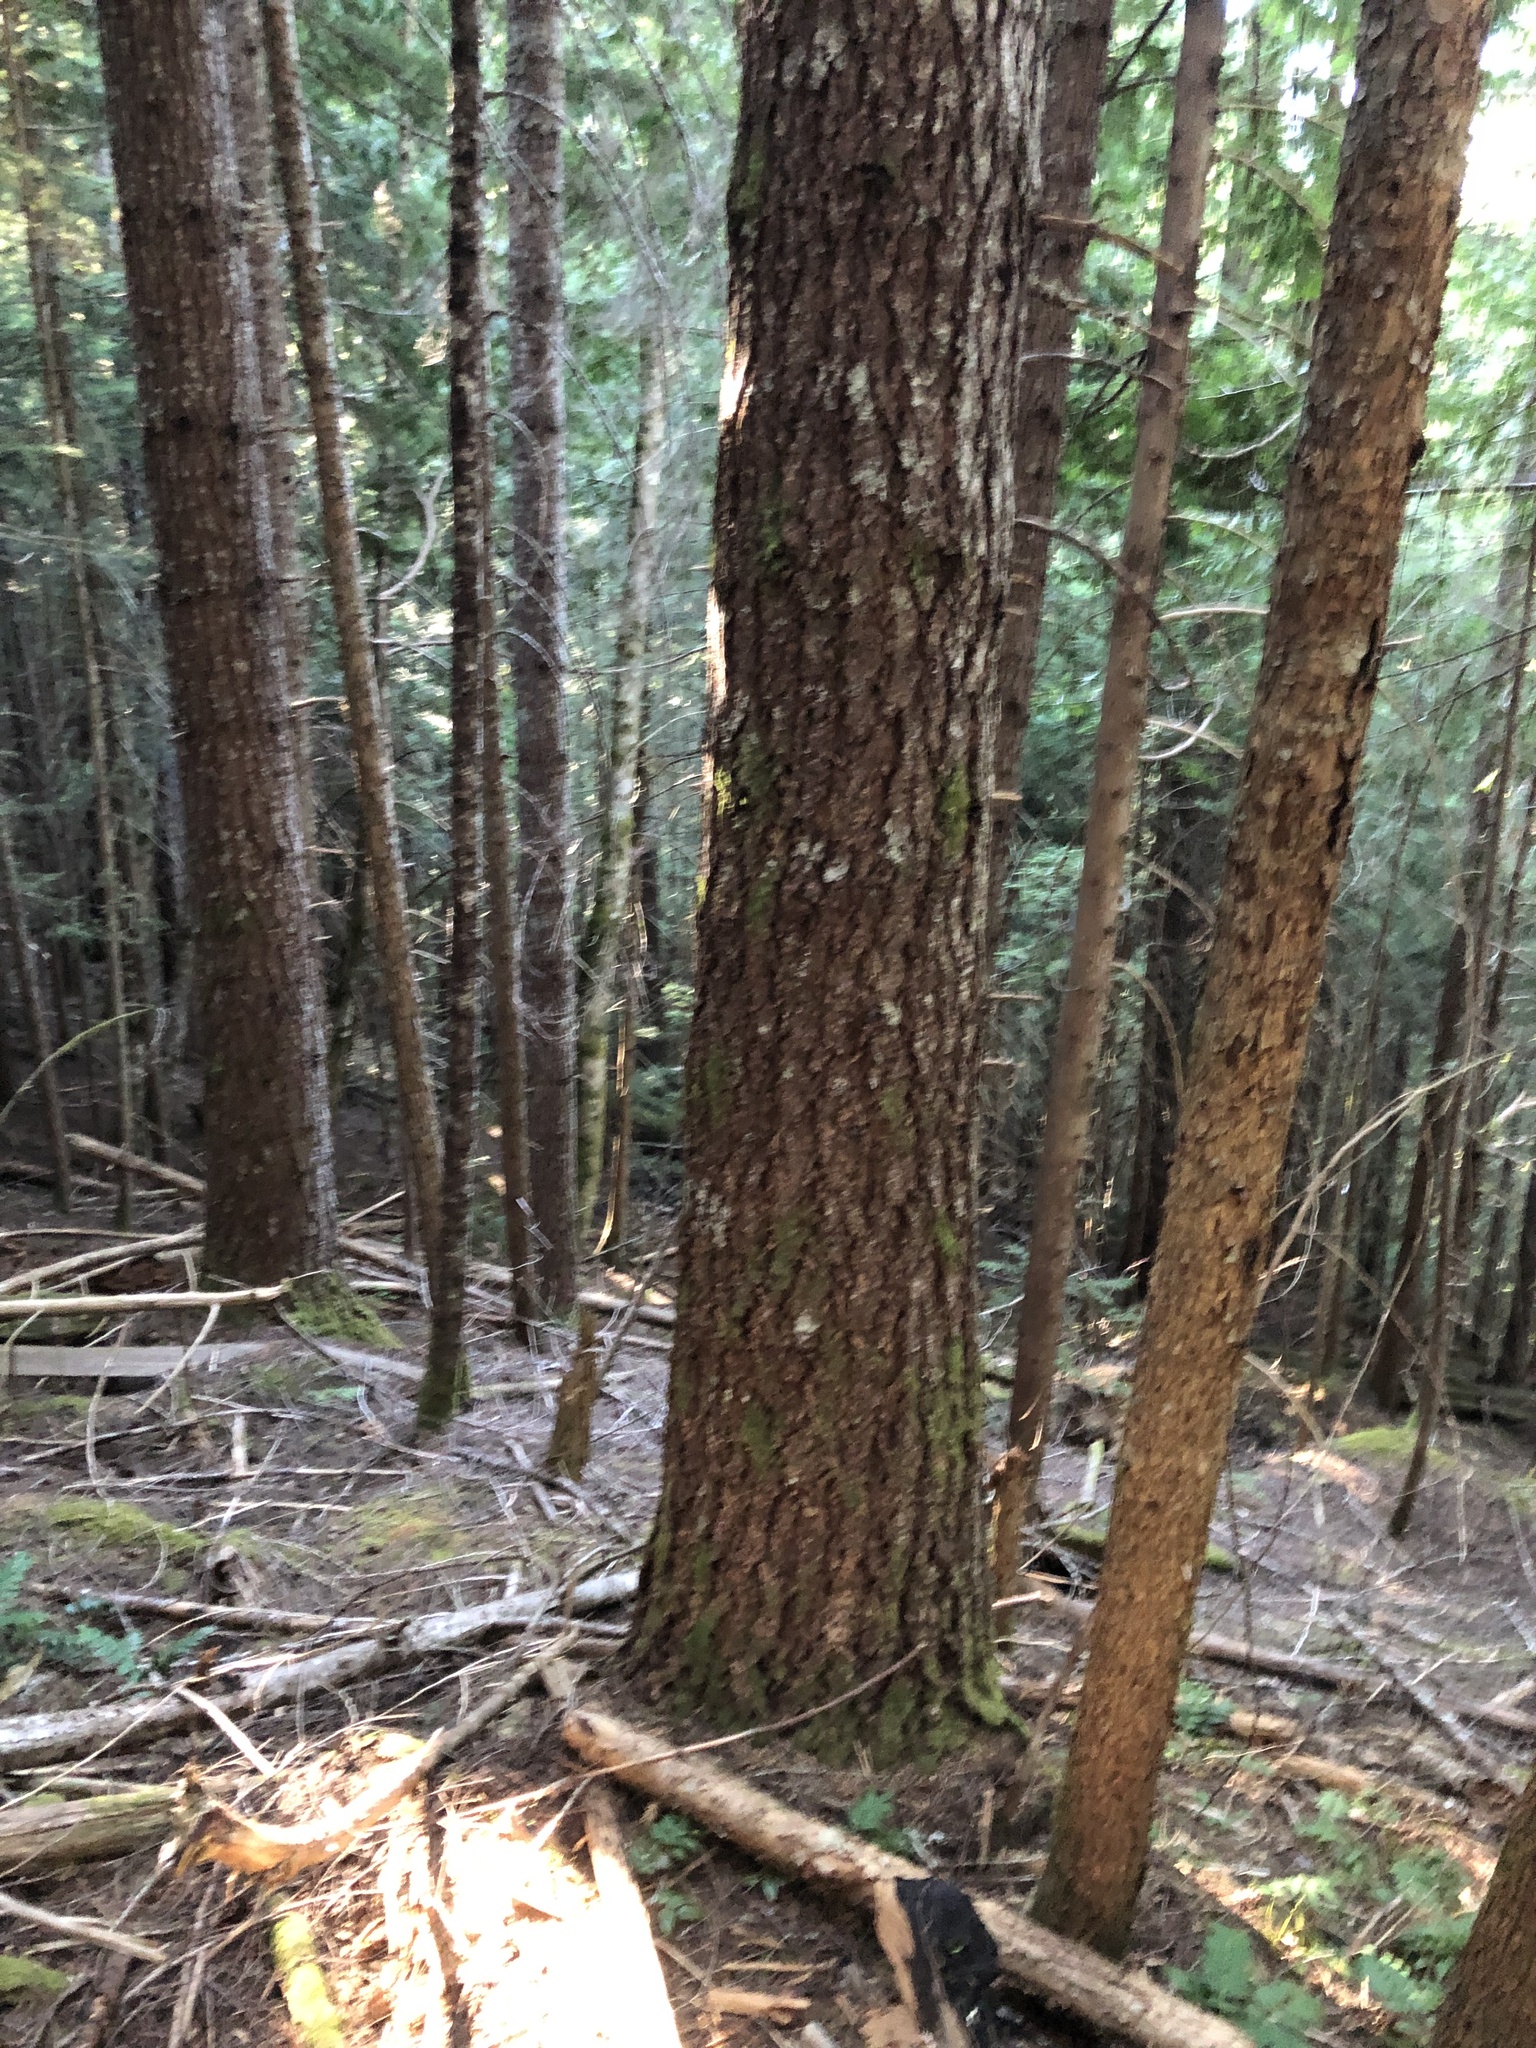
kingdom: Plantae
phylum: Tracheophyta
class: Pinopsida
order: Pinales
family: Pinaceae
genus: Pseudotsuga
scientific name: Pseudotsuga menziesii
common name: Douglas fir
